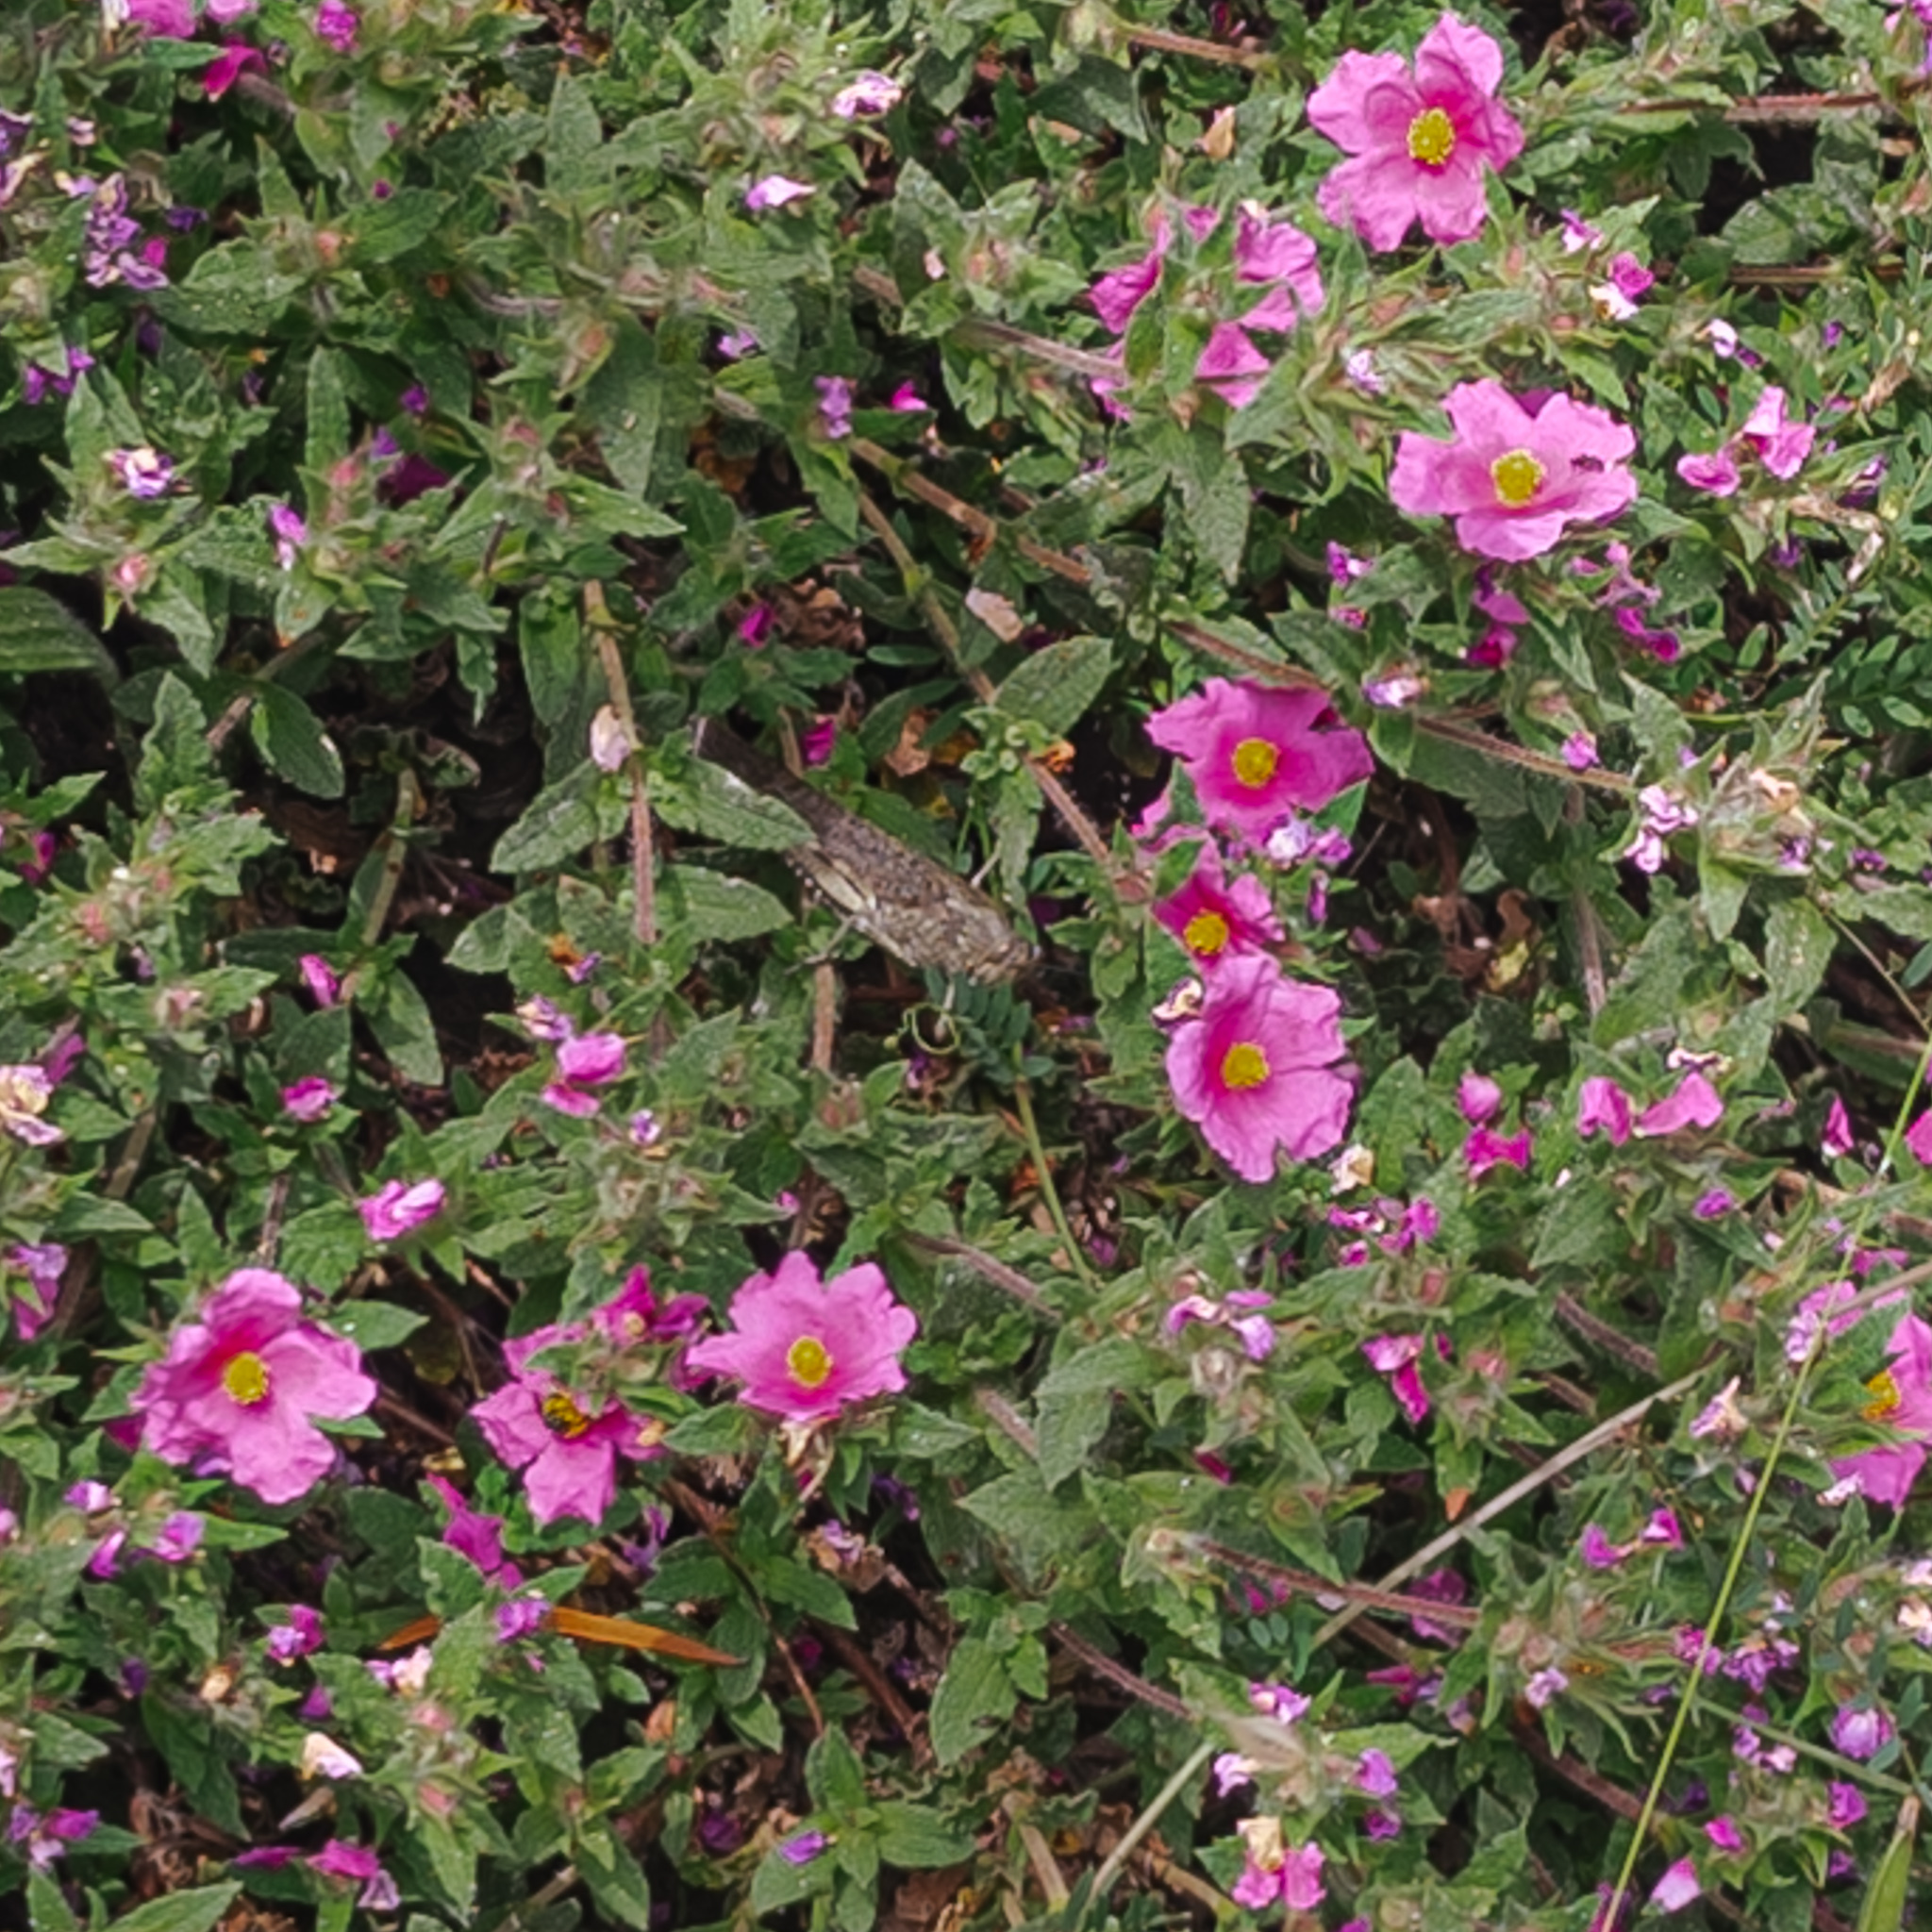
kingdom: Animalia
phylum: Arthropoda
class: Insecta
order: Orthoptera
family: Acrididae
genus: Anacridium
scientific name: Anacridium aegyptium
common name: Egyptian grasshopper
